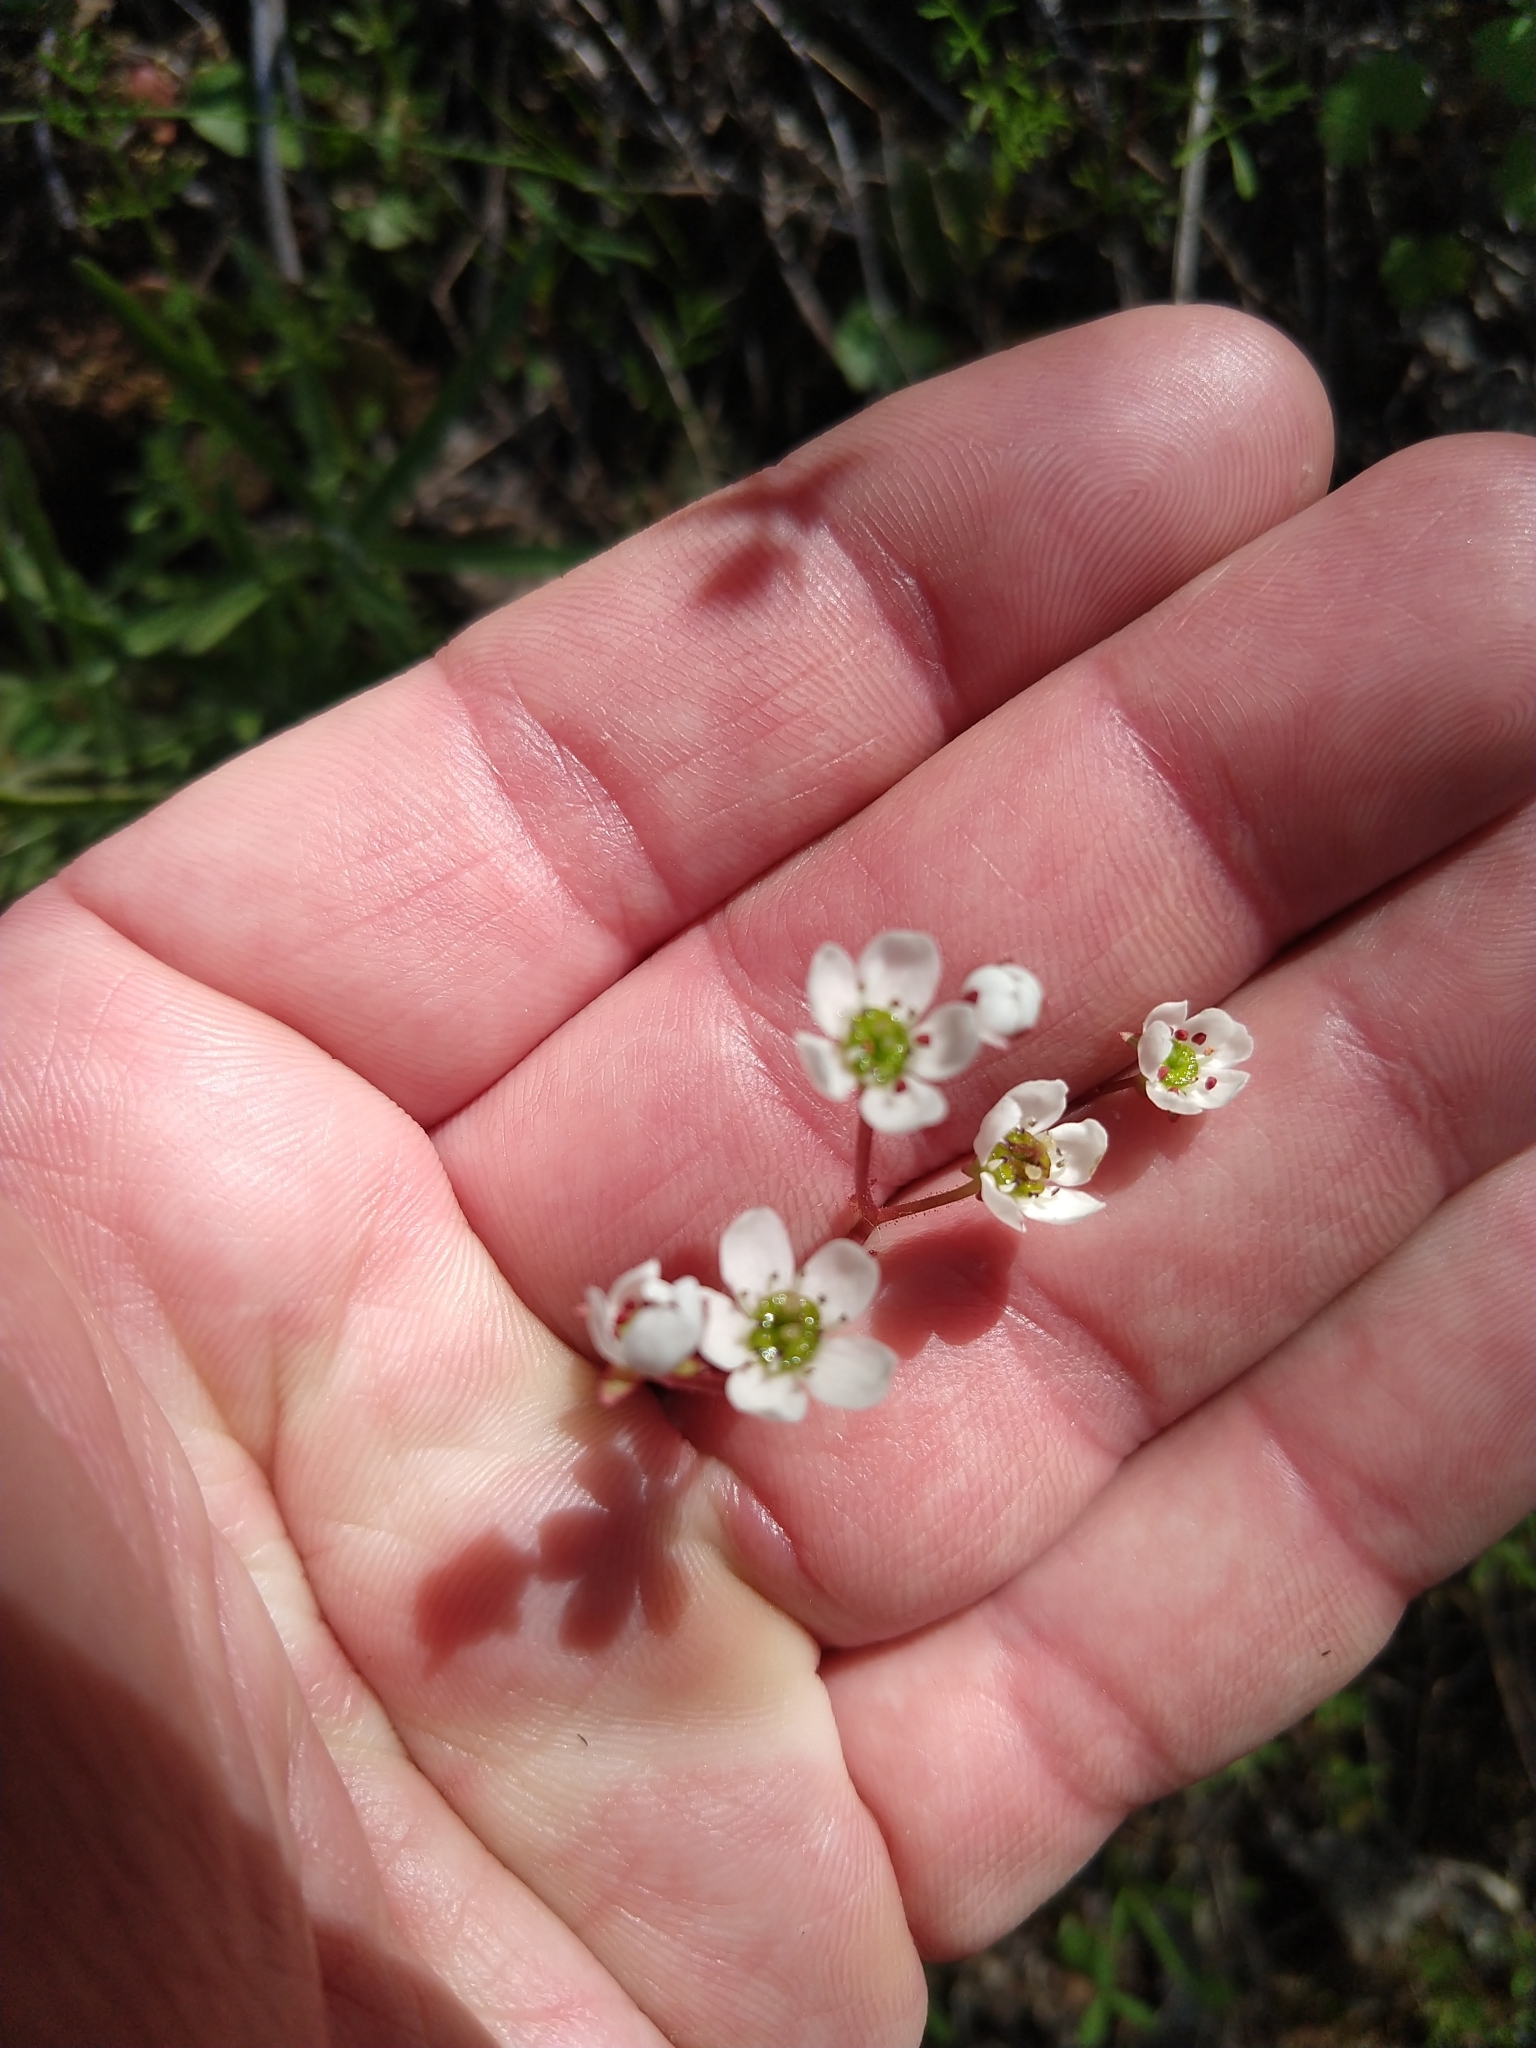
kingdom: Plantae
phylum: Tracheophyta
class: Magnoliopsida
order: Saxifragales
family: Saxifragaceae
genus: Micranthes
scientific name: Micranthes californica
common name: California saxifrage
